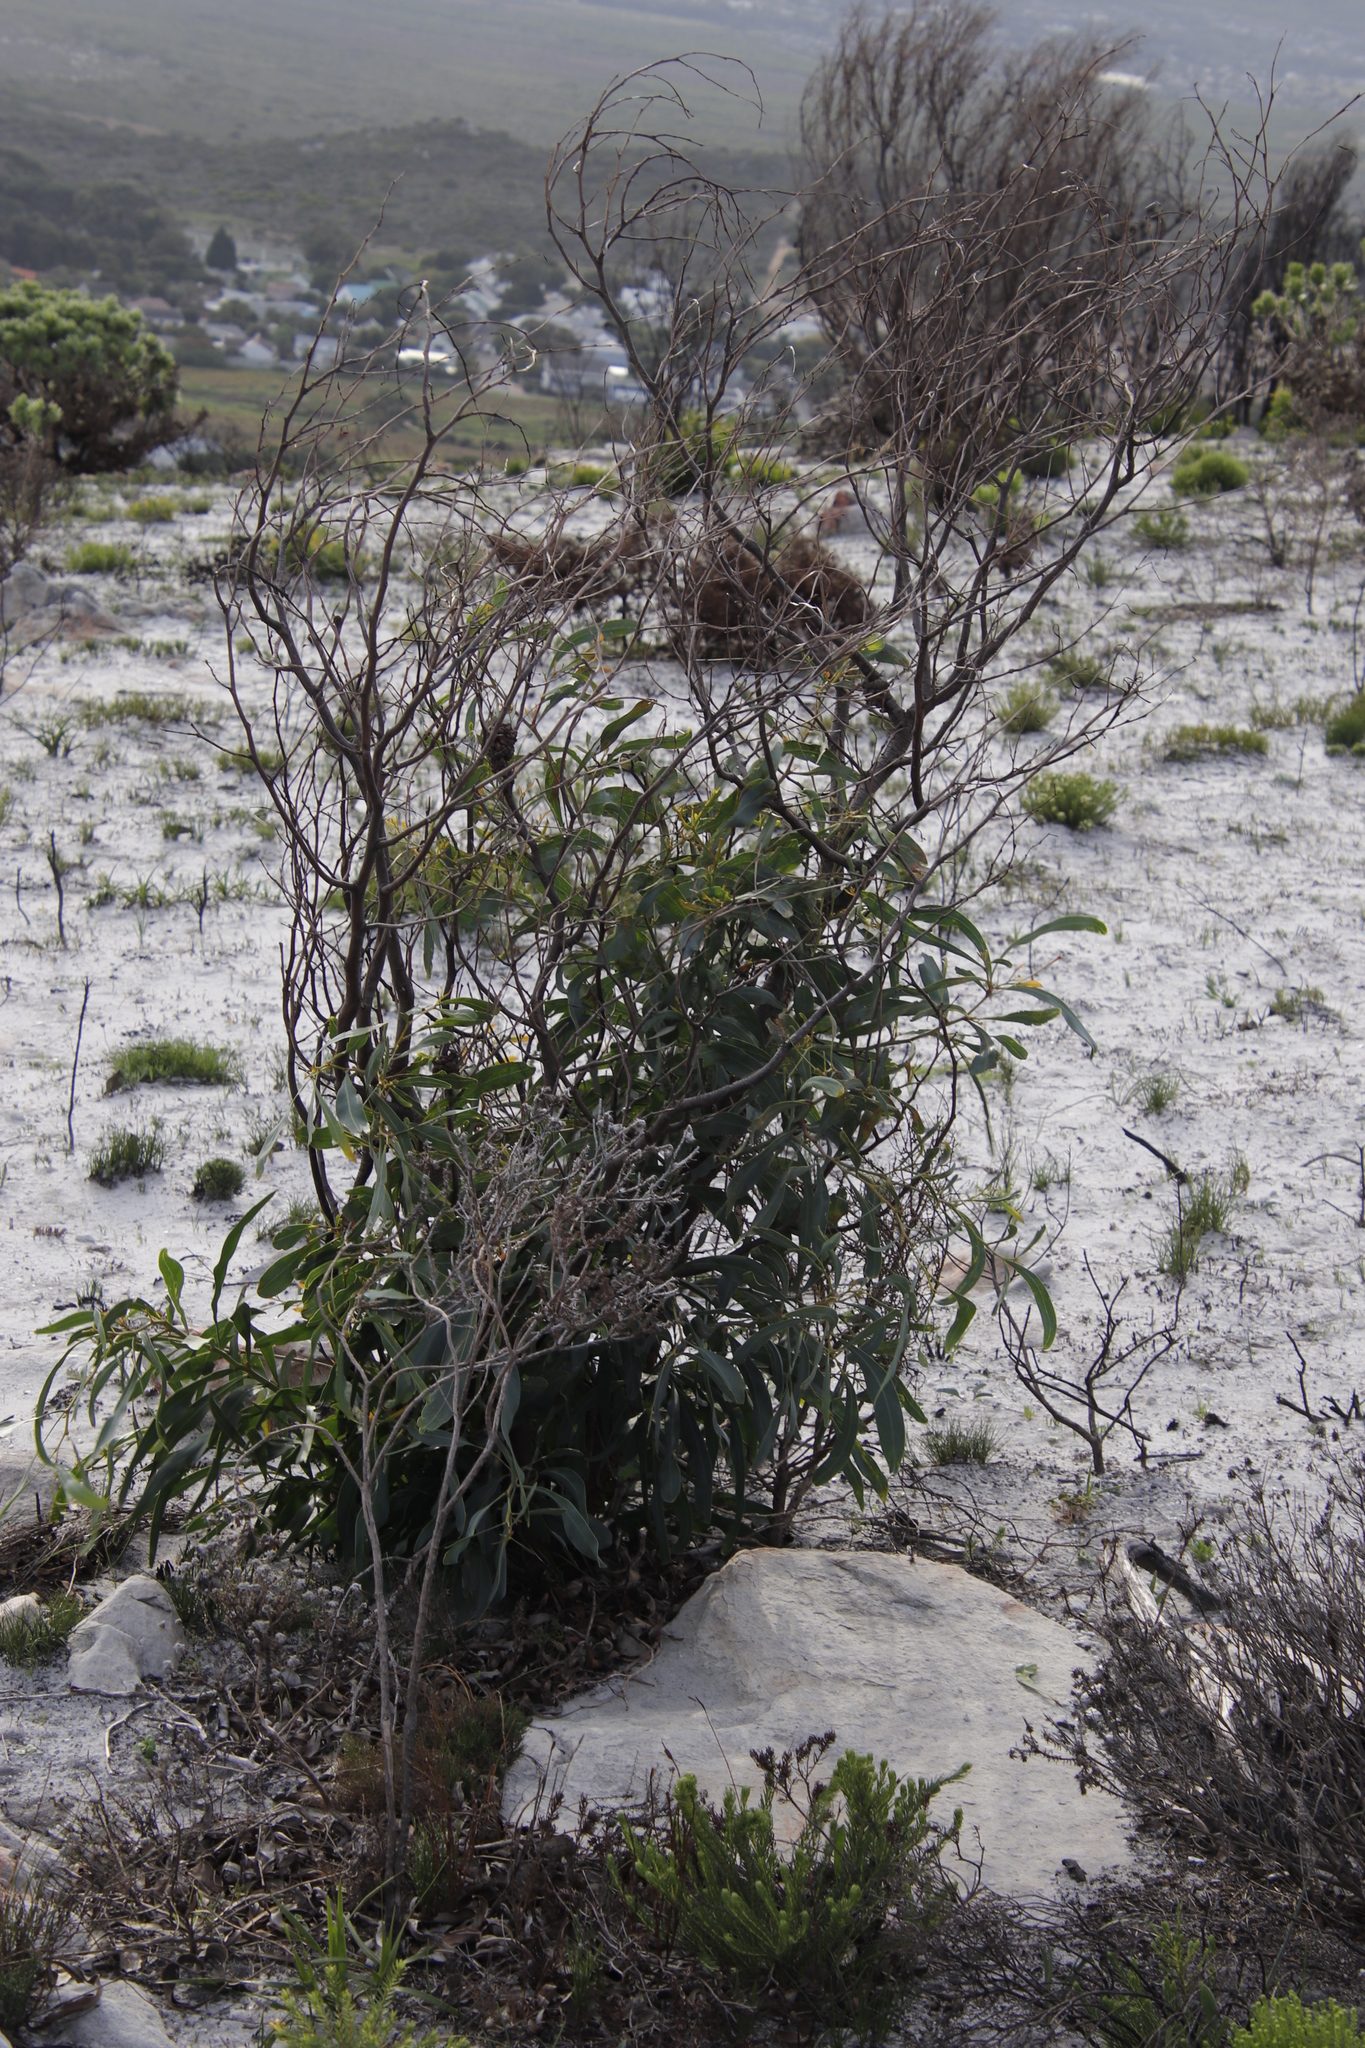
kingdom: Plantae
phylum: Tracheophyta
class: Magnoliopsida
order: Fabales
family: Fabaceae
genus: Acacia
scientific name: Acacia saligna
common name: Orange wattle
